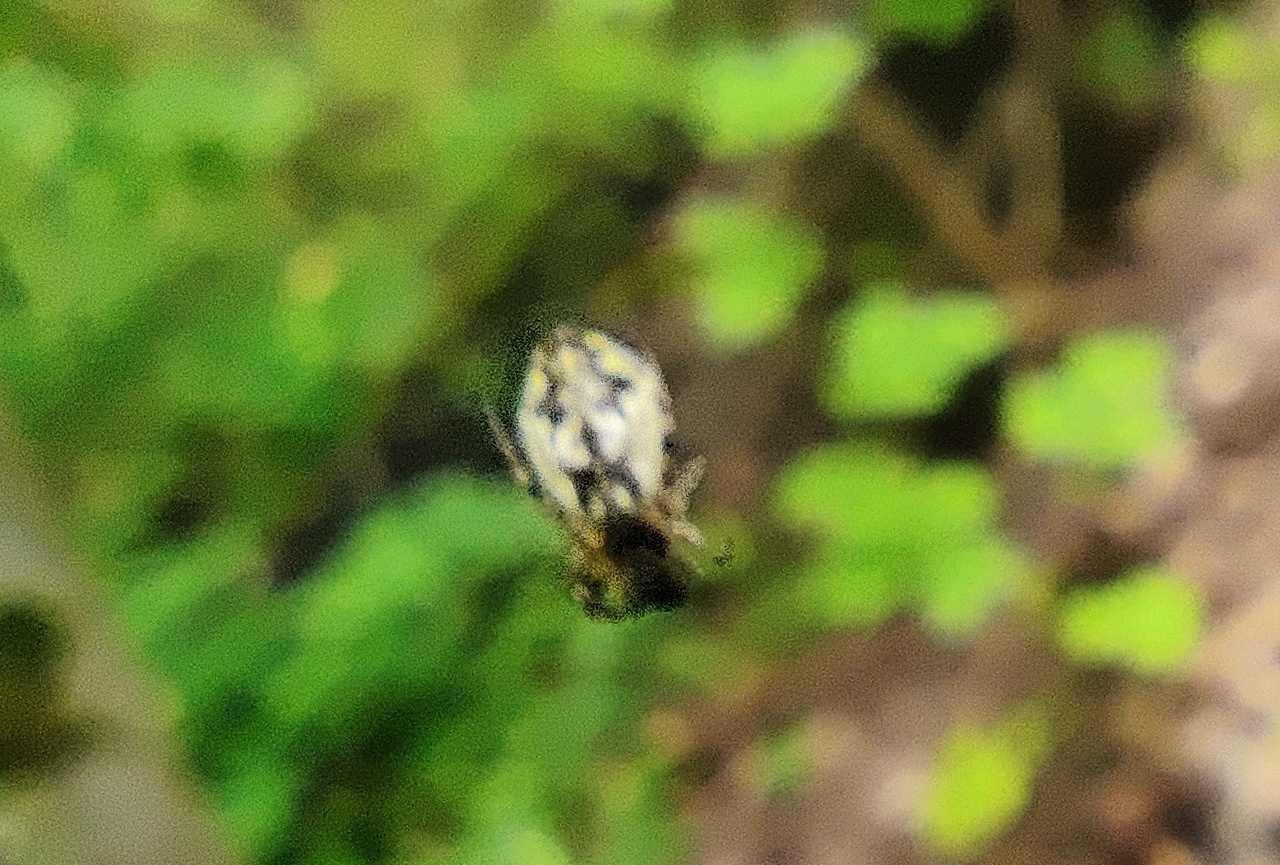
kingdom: Animalia
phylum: Arthropoda
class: Arachnida
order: Araneae
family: Araneidae
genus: Cyclosa
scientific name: Cyclosa conica
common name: Conical trashline orbweaver
